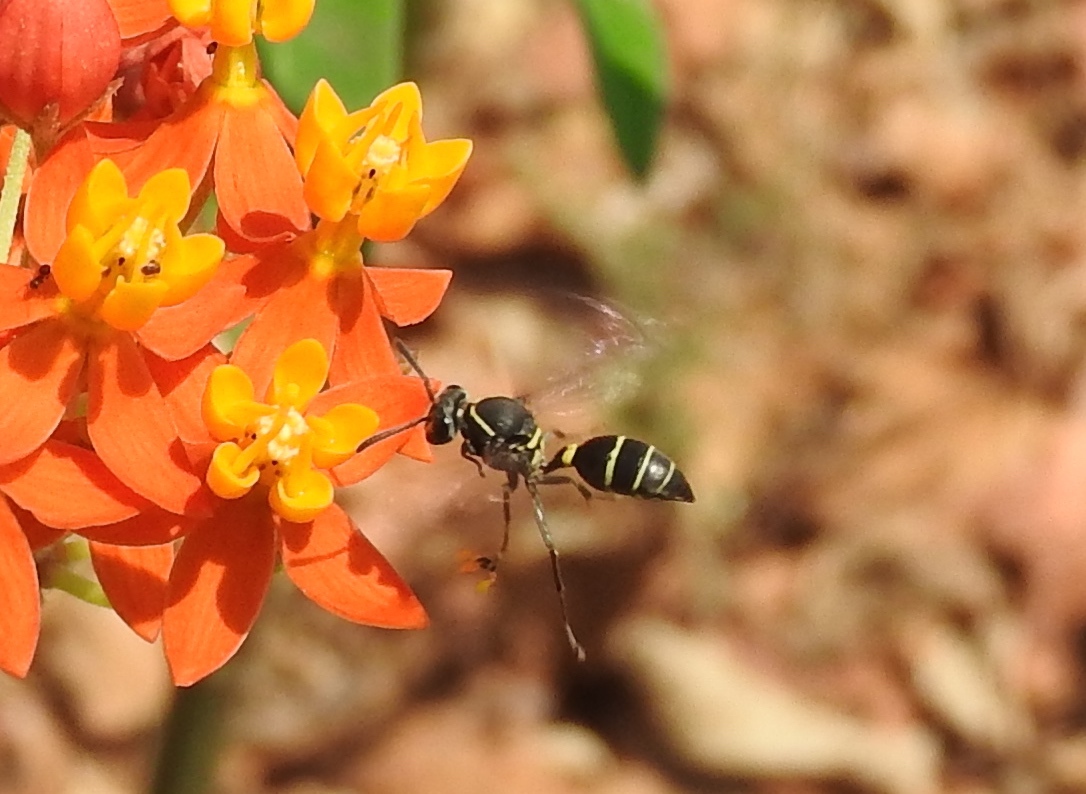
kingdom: Animalia
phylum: Arthropoda
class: Insecta
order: Hymenoptera
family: Vespidae
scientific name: Vespidae
